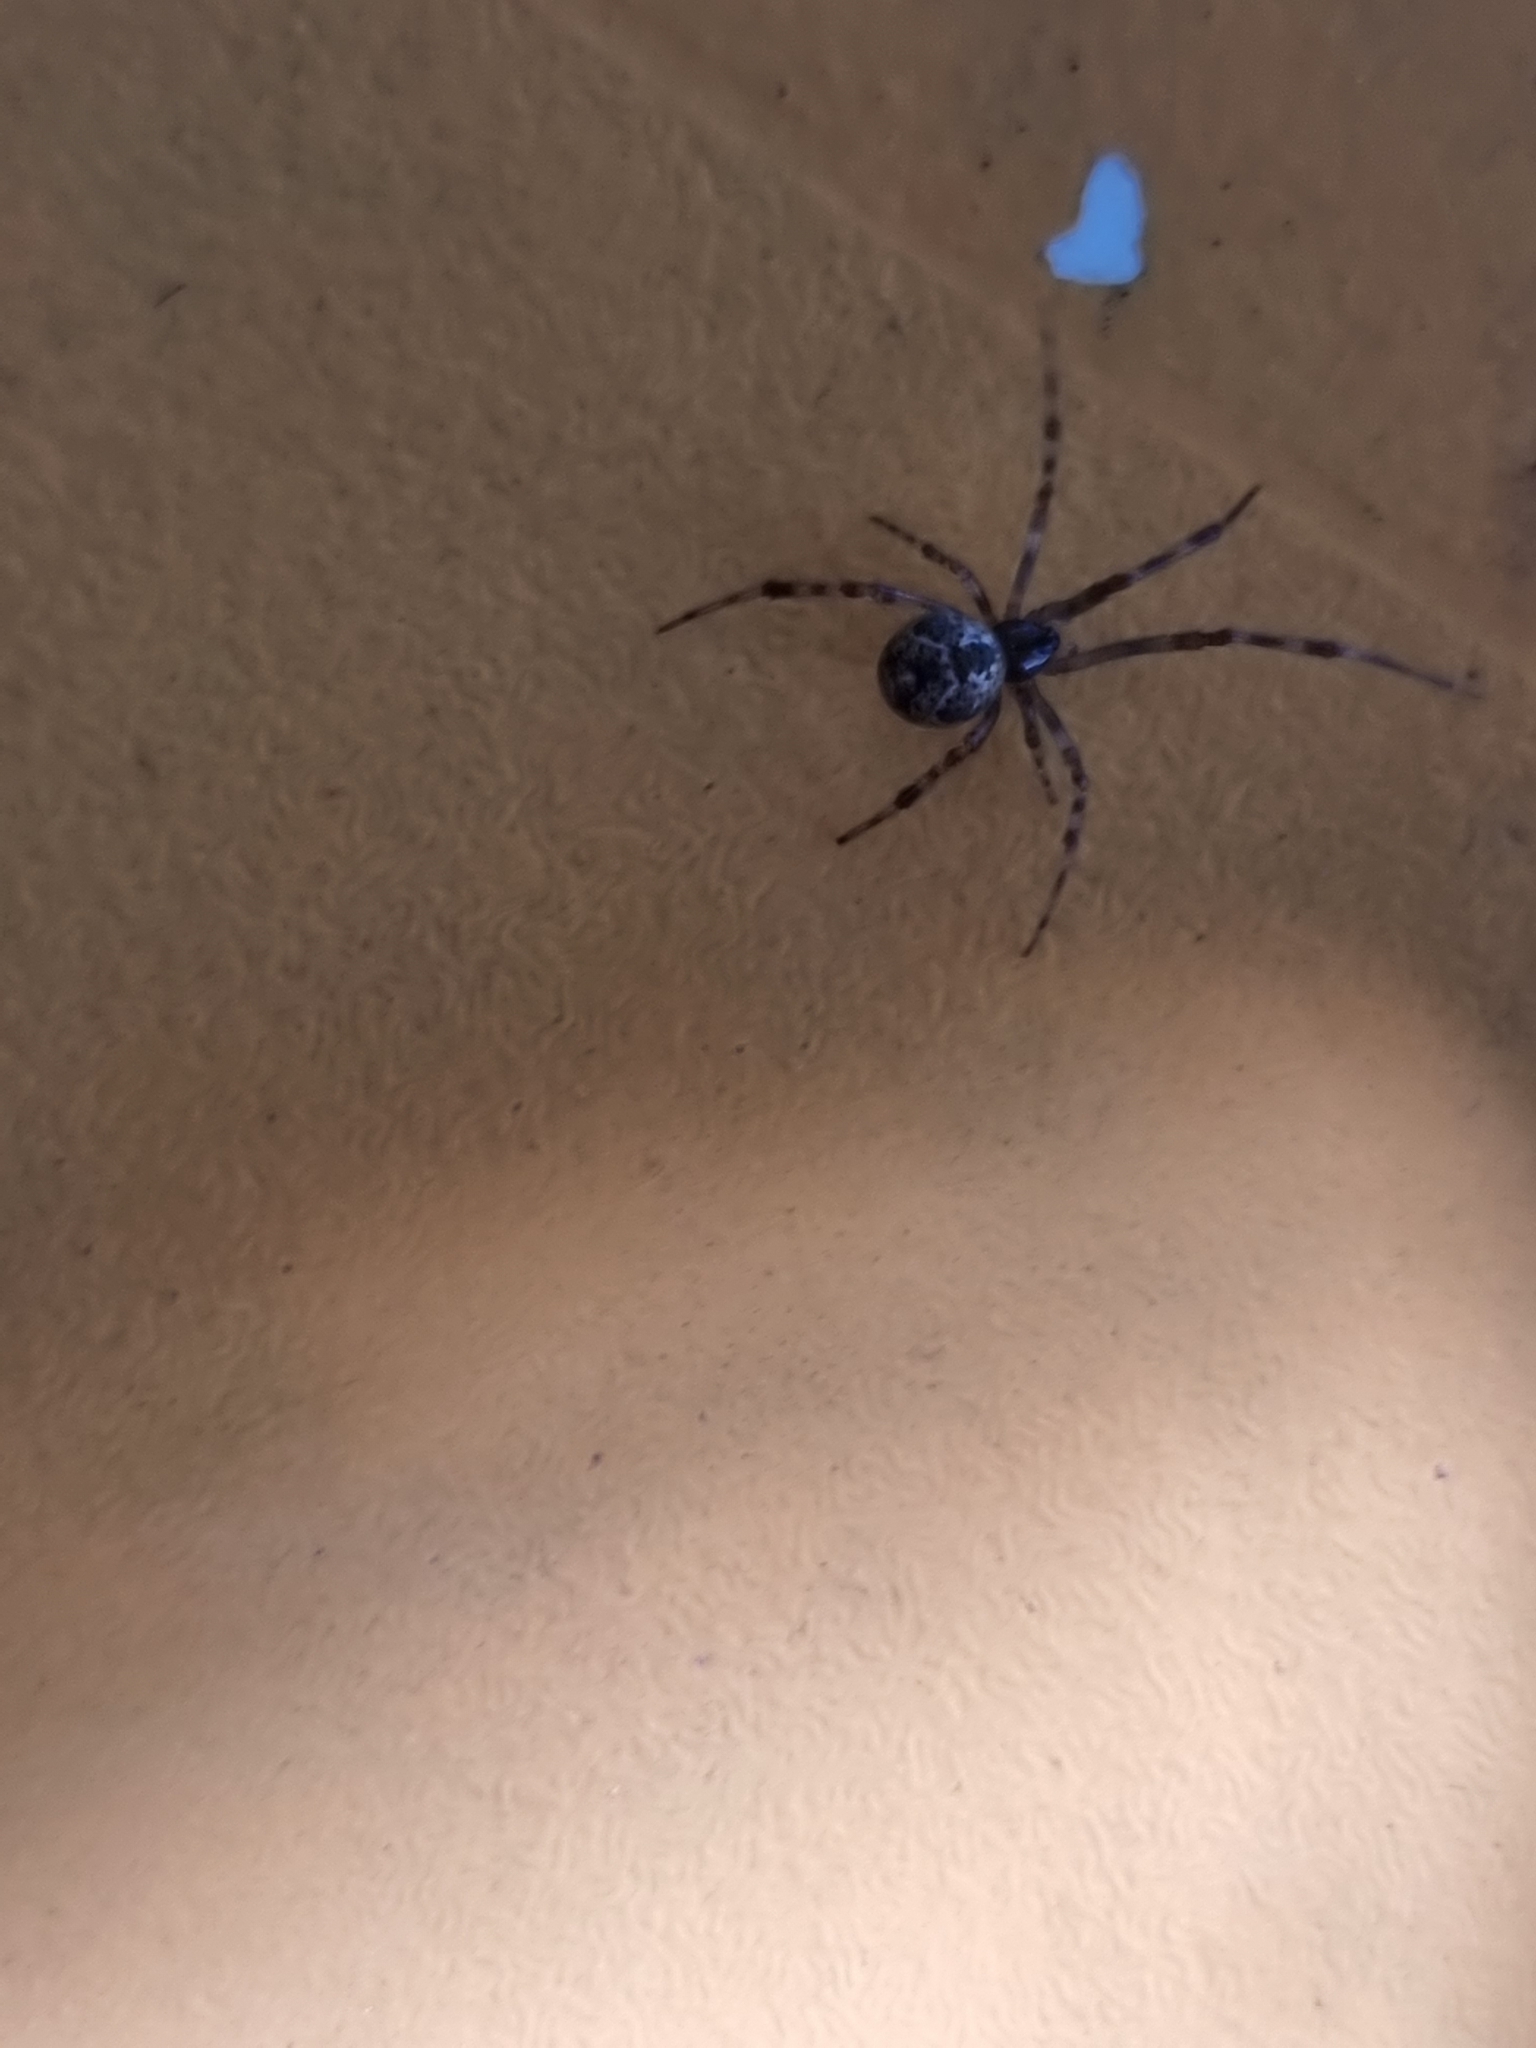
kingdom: Animalia
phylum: Arthropoda
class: Arachnida
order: Araneae
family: Theridiidae
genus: Cryptachaea
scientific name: Cryptachaea veruculata
